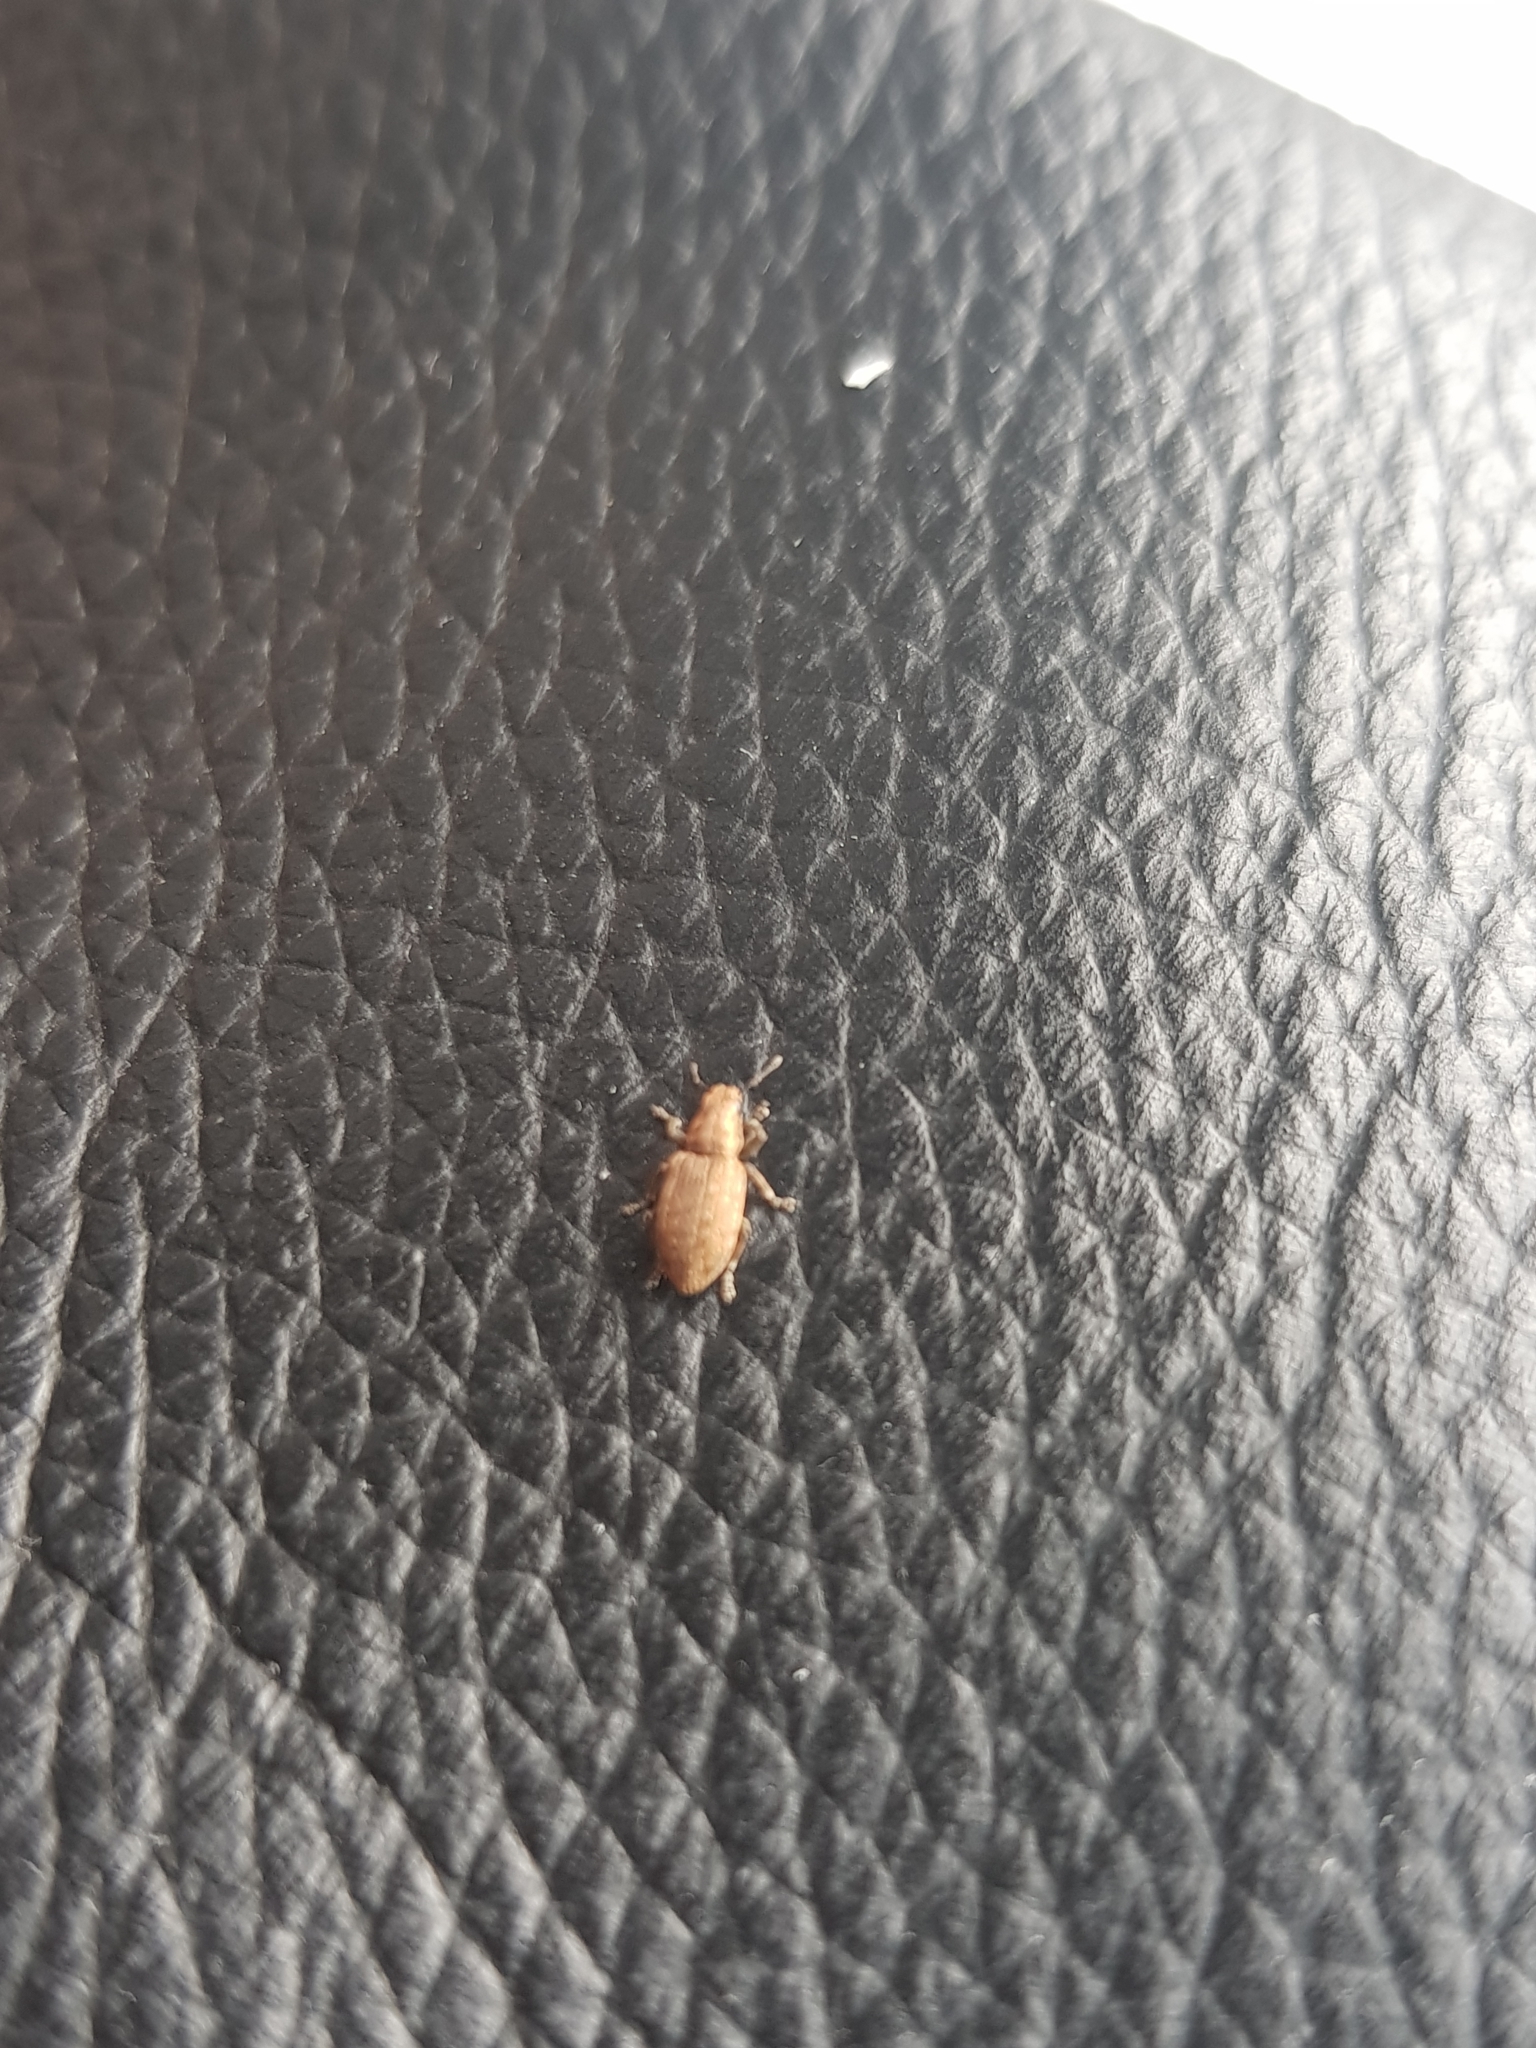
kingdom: Animalia
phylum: Arthropoda
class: Insecta
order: Coleoptera
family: Curculionidae
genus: Sitona
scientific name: Sitona obsoletus
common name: Weevil
